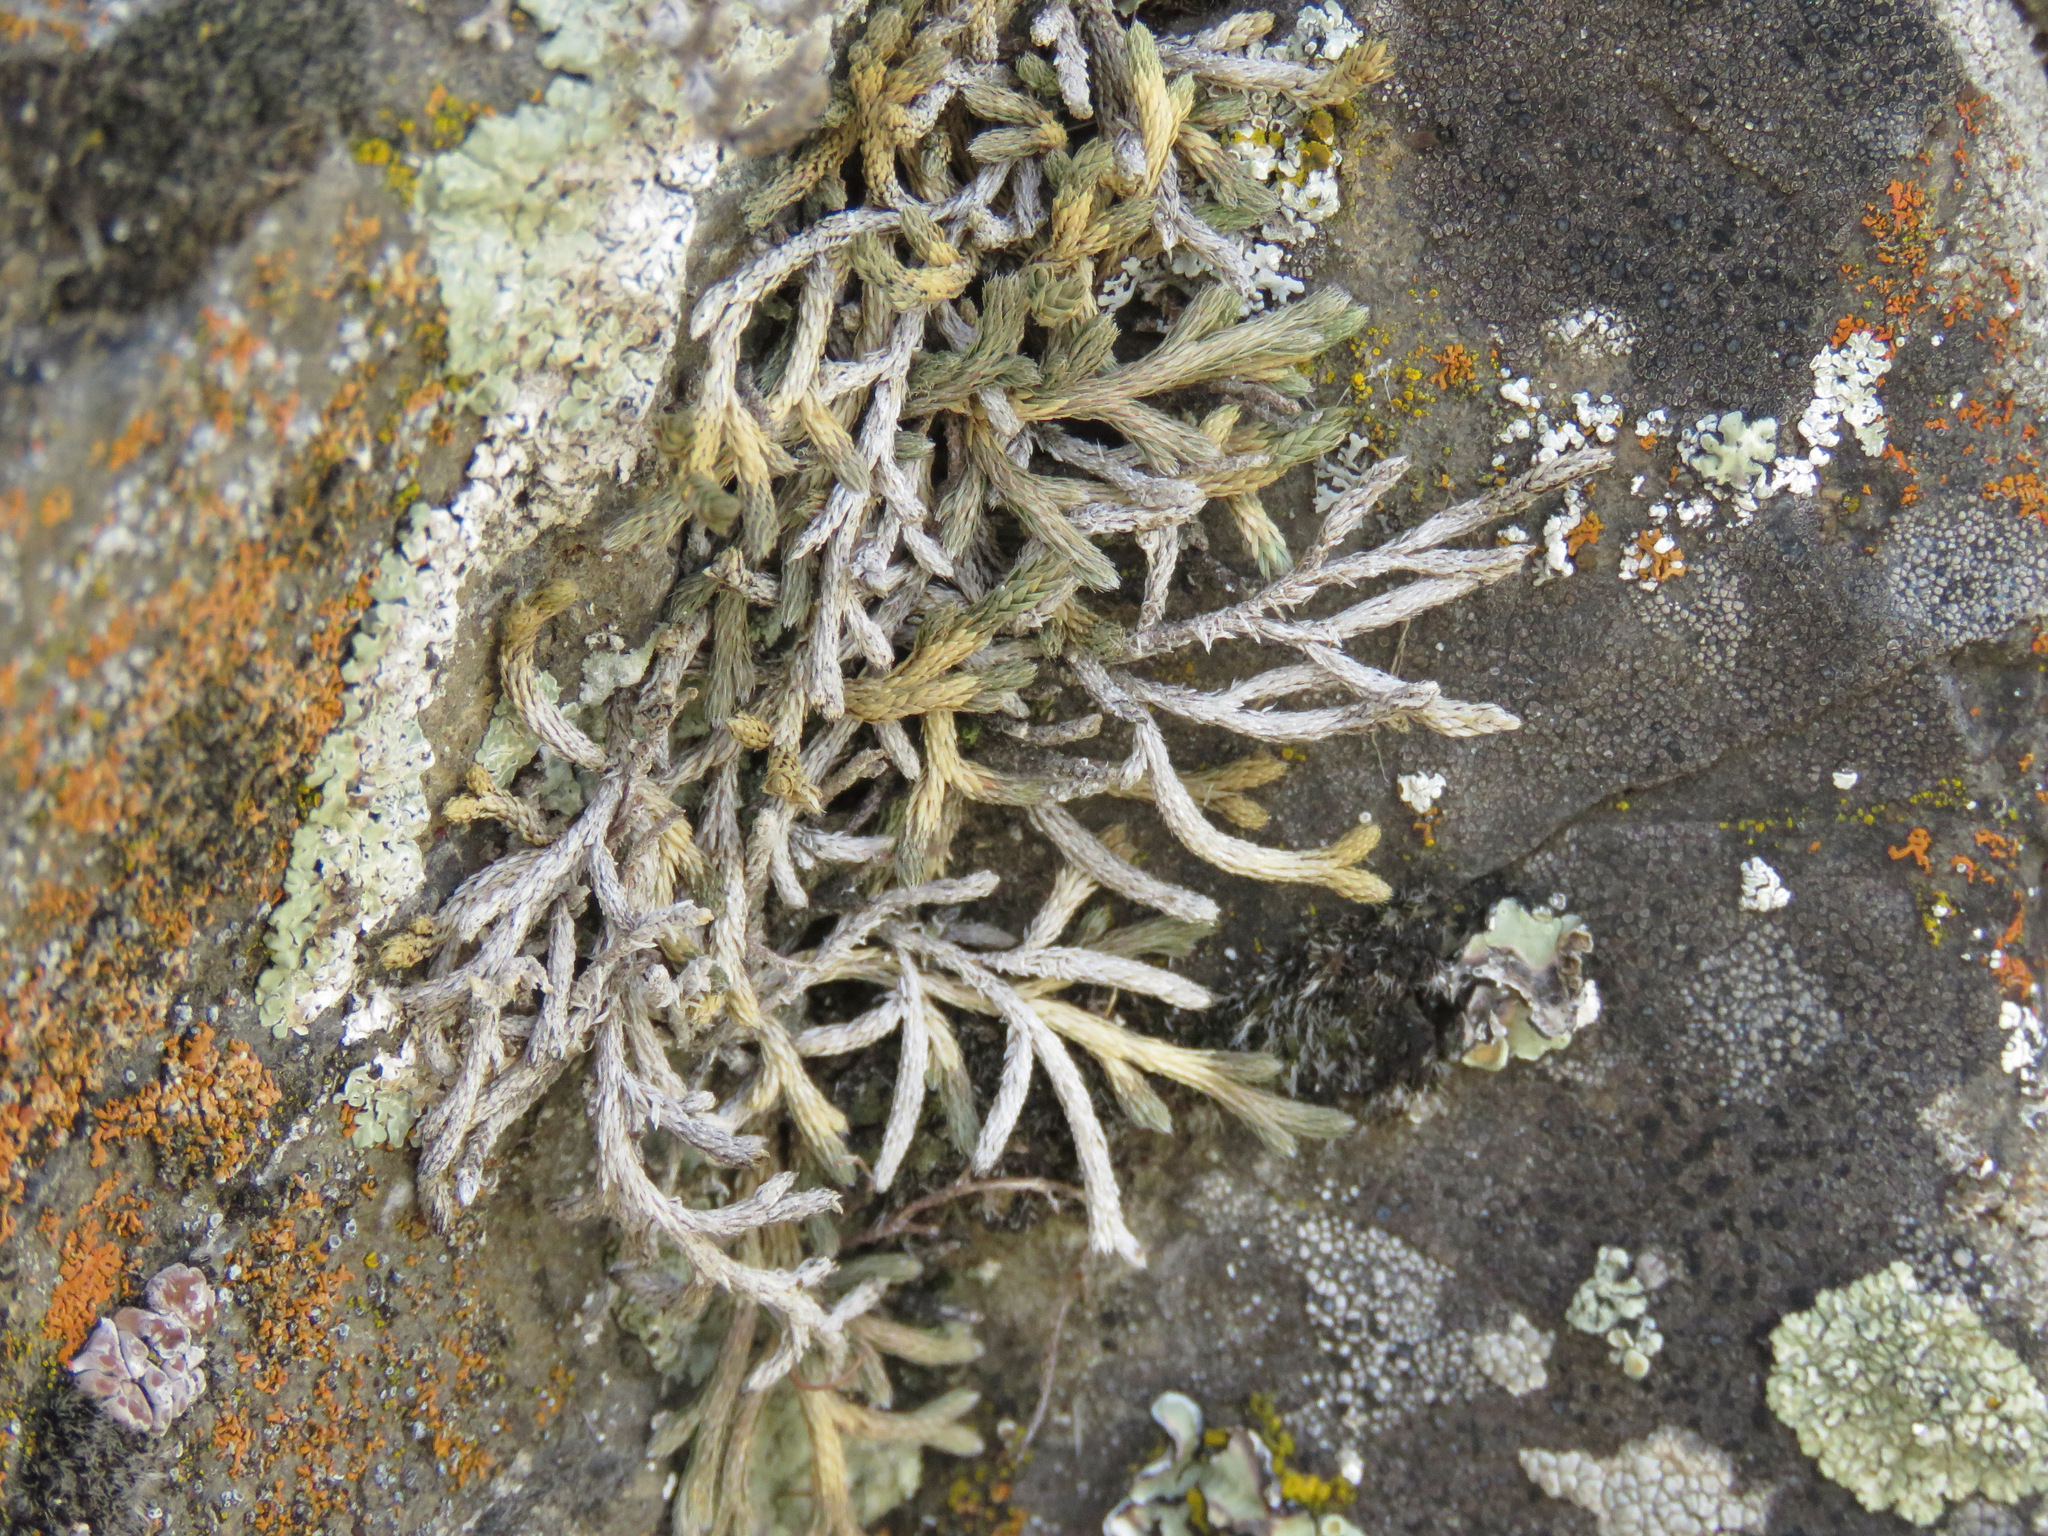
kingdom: Plantae
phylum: Tracheophyta
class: Lycopodiopsida
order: Selaginellales
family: Selaginellaceae
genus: Selaginella
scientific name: Selaginella wallacei
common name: Wallace's selaginella
